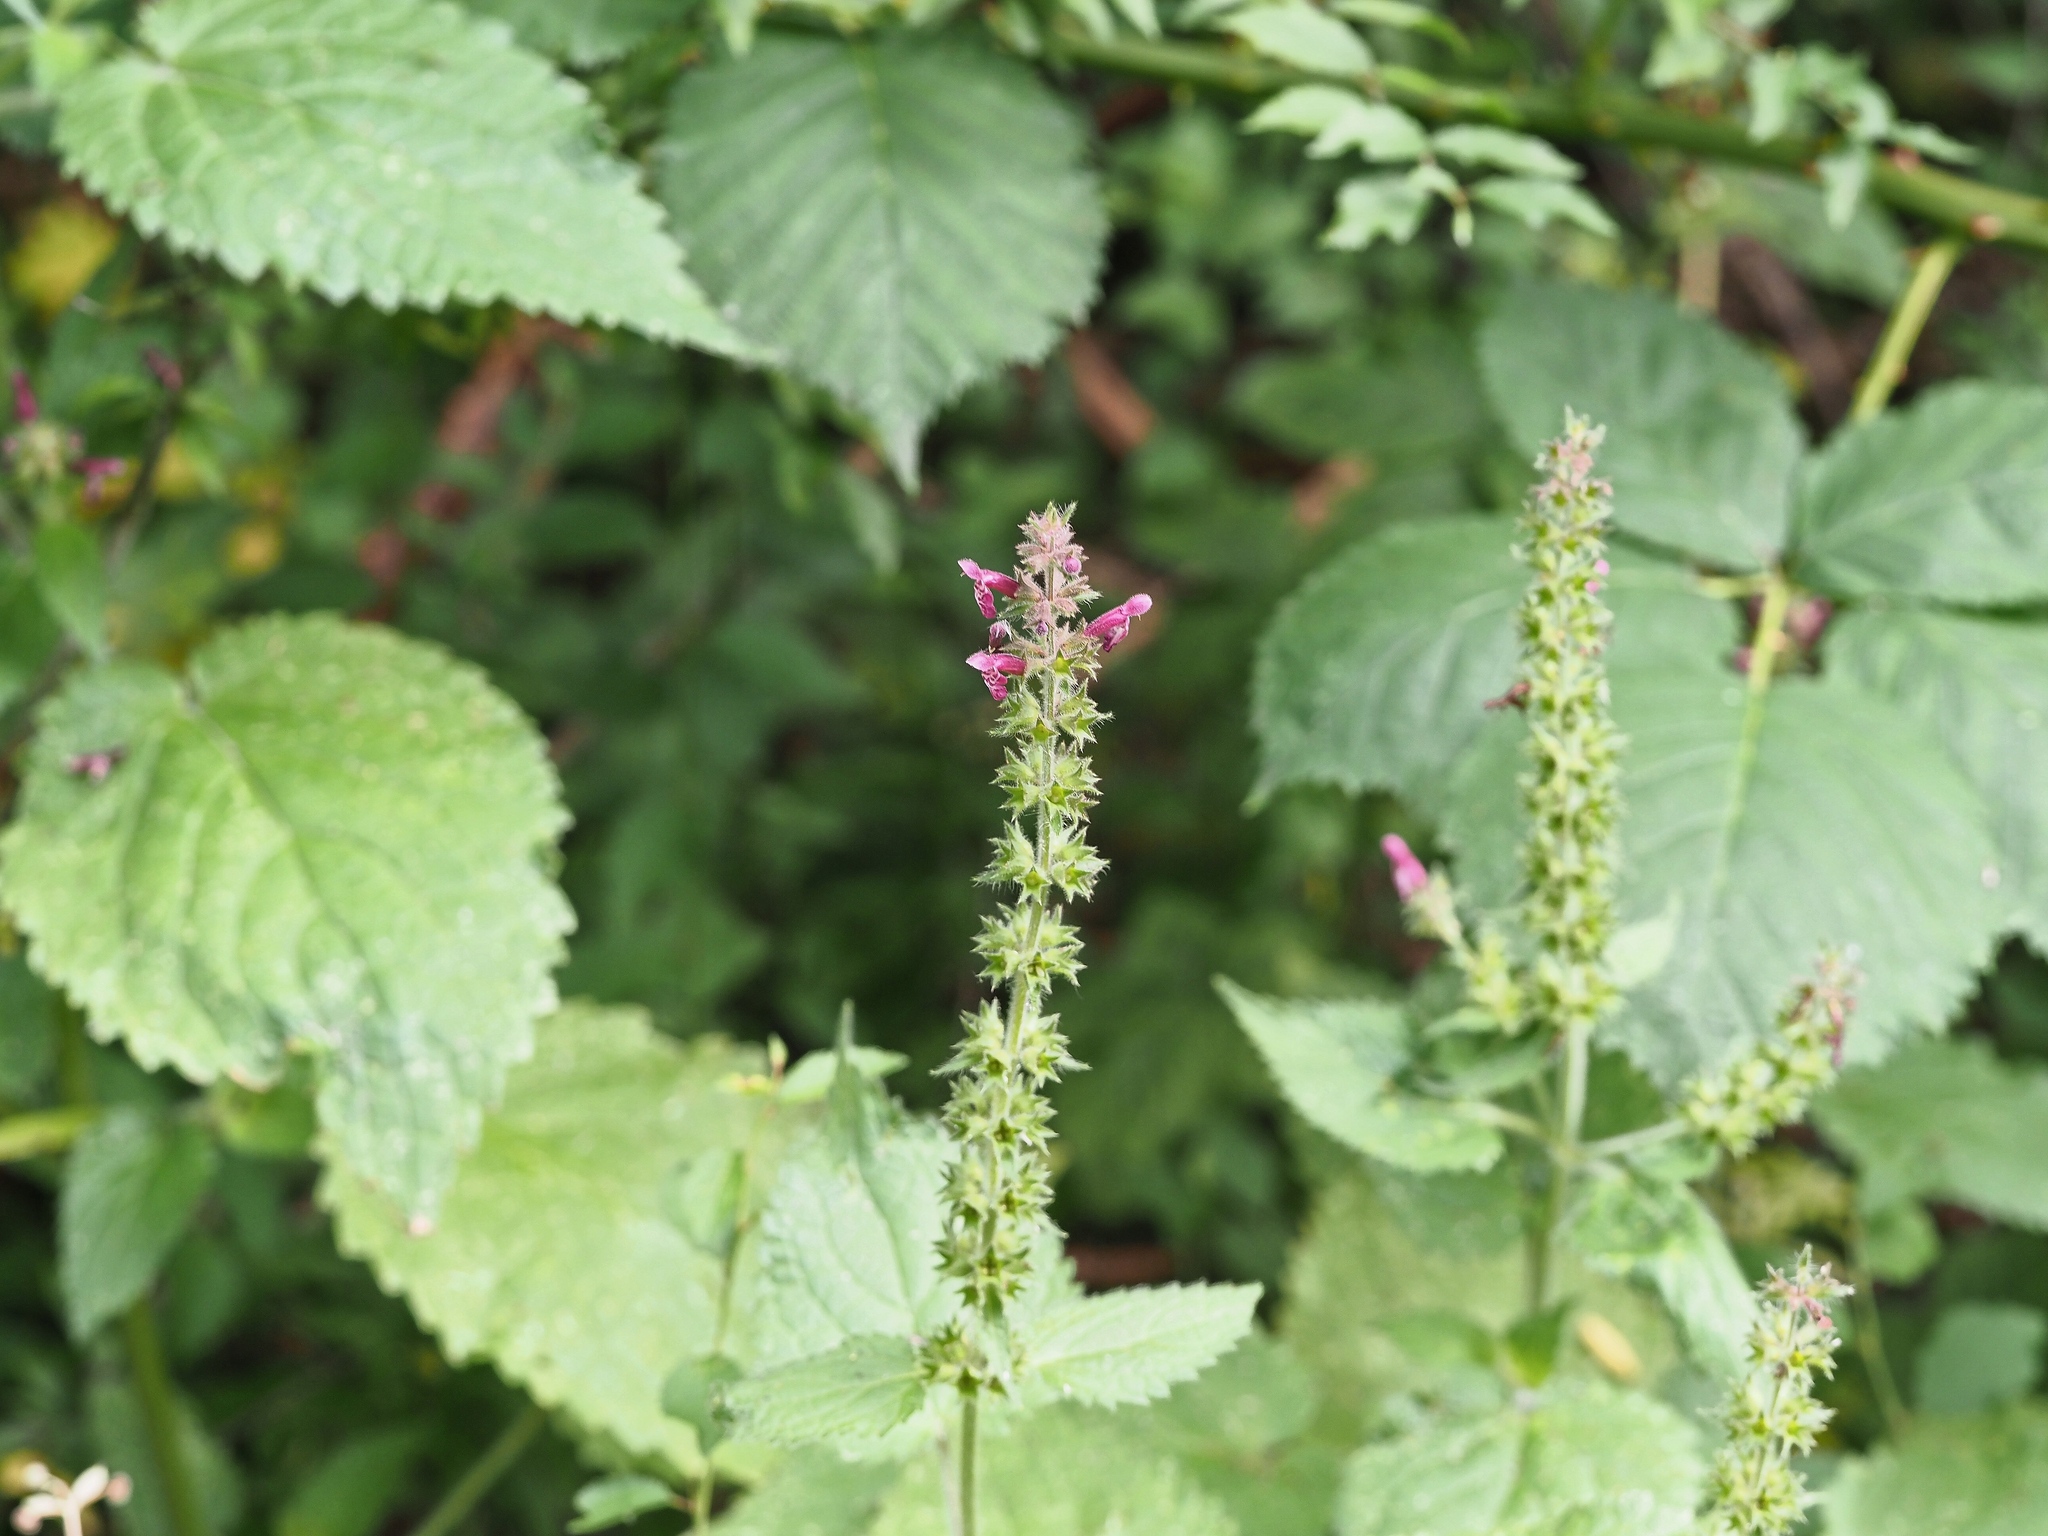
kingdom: Plantae
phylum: Tracheophyta
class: Magnoliopsida
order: Lamiales
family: Lamiaceae
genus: Stachys
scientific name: Stachys sylvatica
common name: Hedge woundwort
